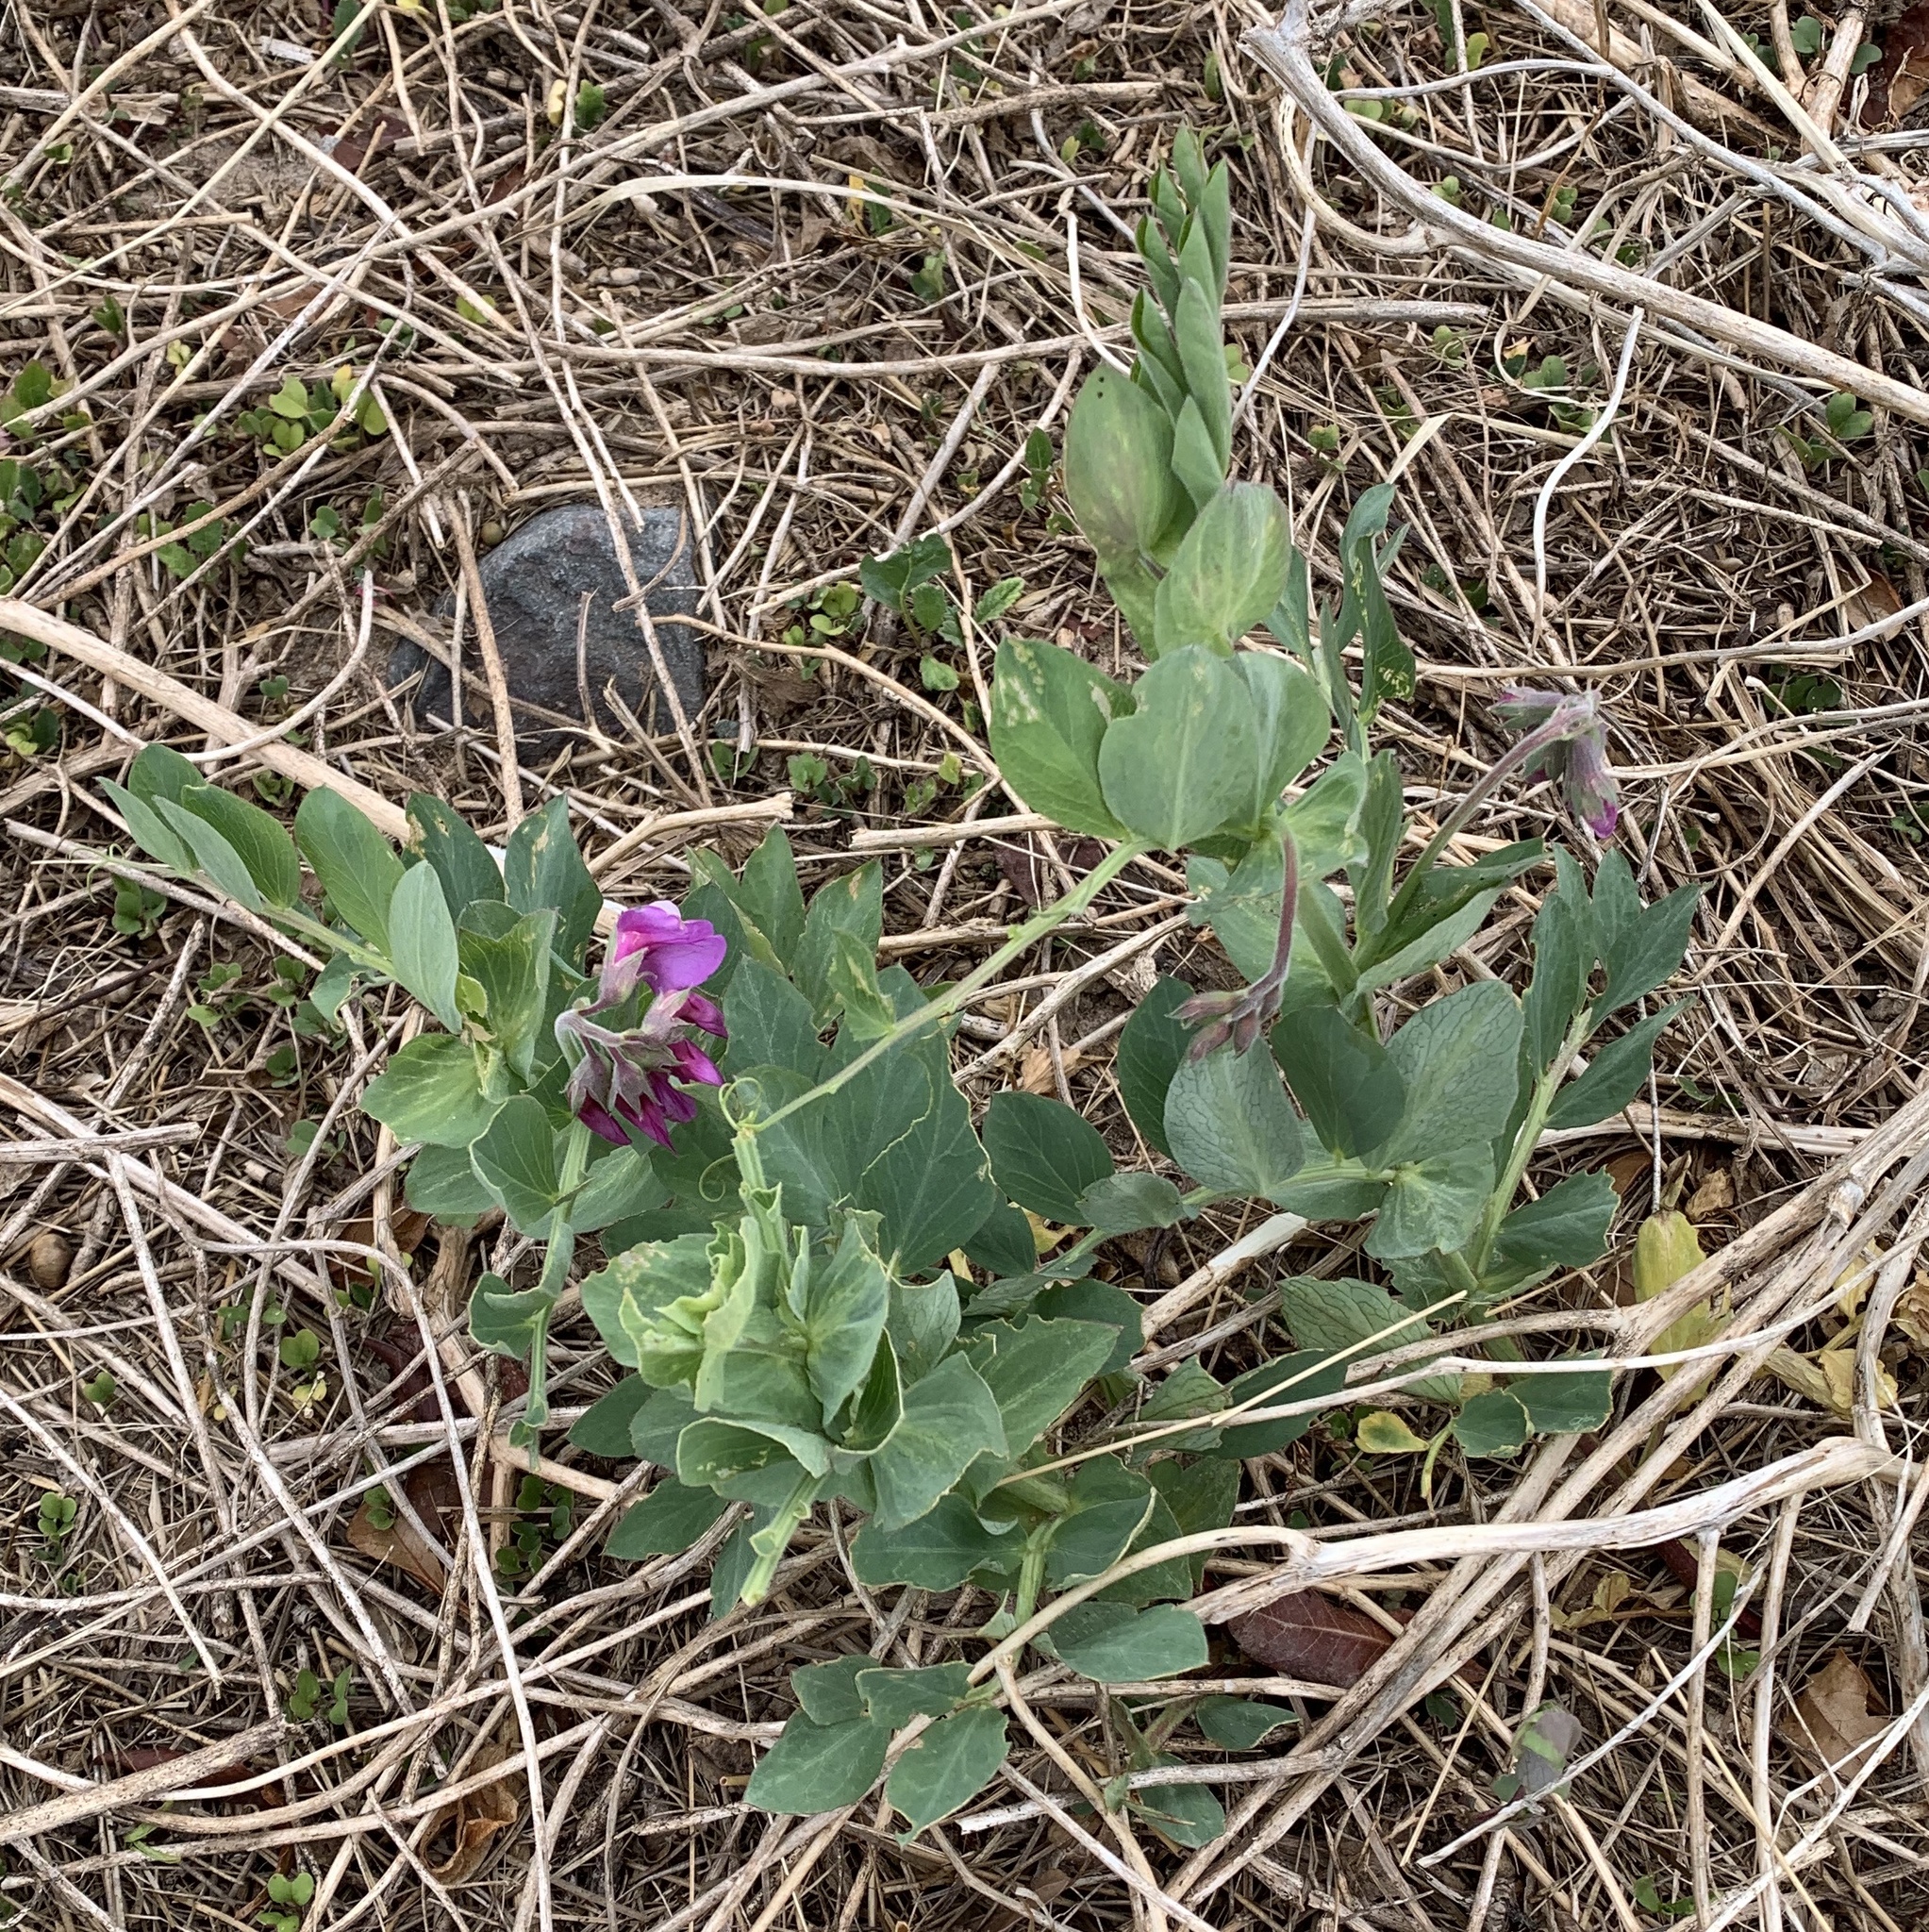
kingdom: Plantae
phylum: Tracheophyta
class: Magnoliopsida
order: Fabales
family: Fabaceae
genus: Lathyrus
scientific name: Lathyrus japonicus
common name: Sea pea
